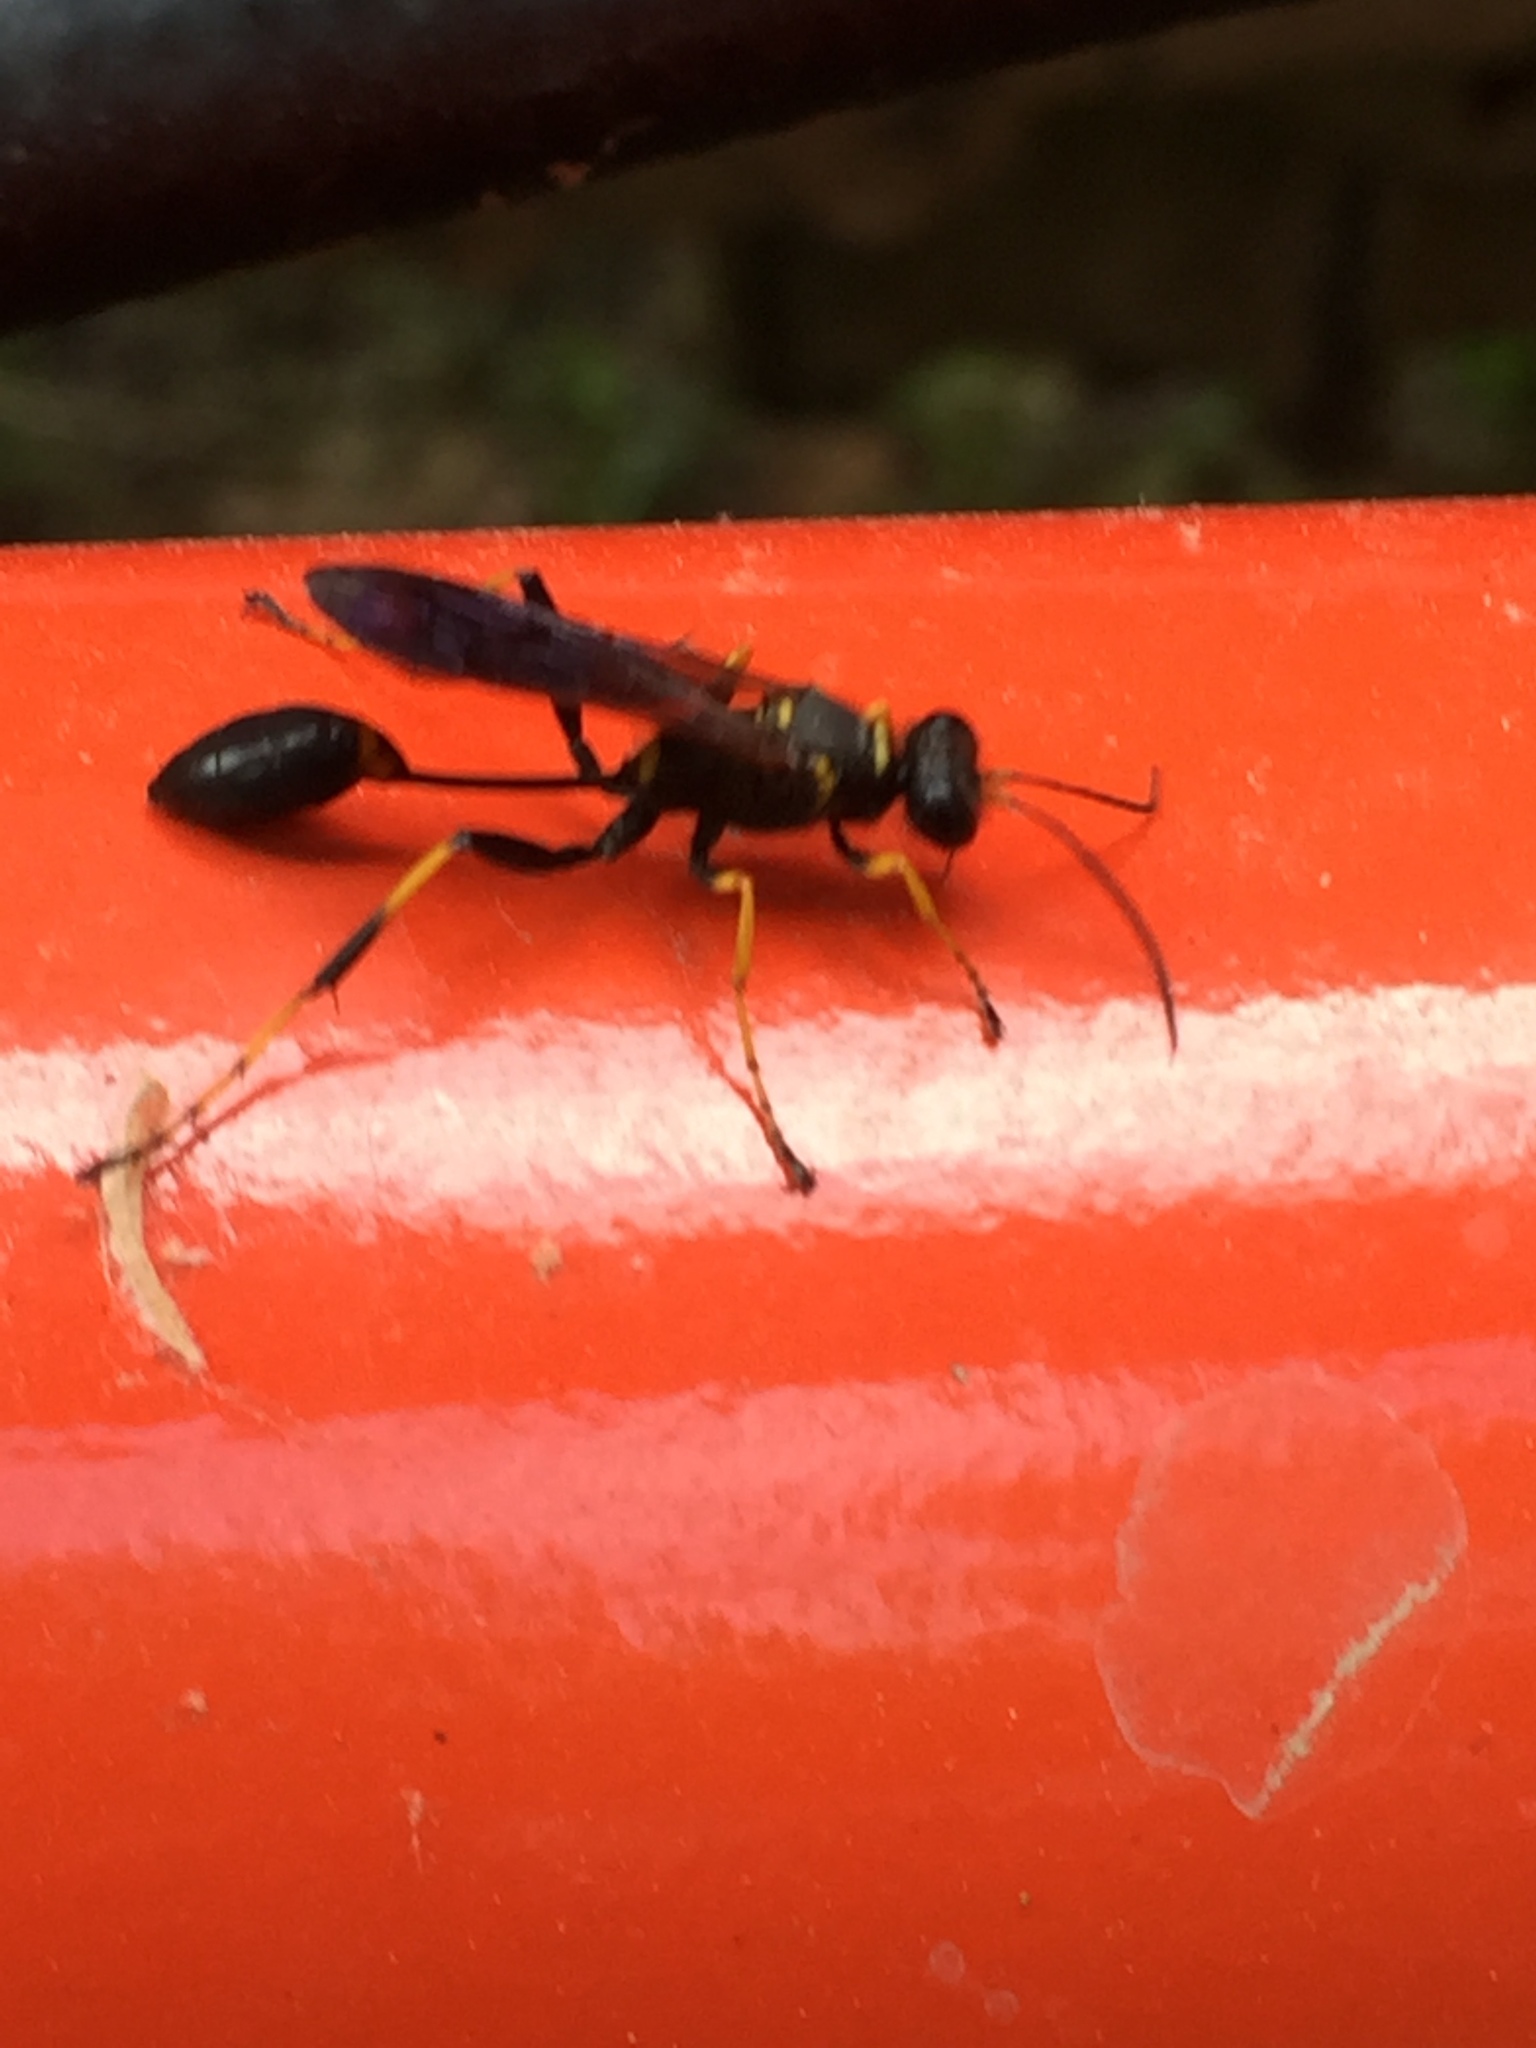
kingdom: Animalia
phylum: Arthropoda
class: Insecta
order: Hymenoptera
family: Sphecidae
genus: Sceliphron
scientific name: Sceliphron caementarium
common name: Mud dauber
